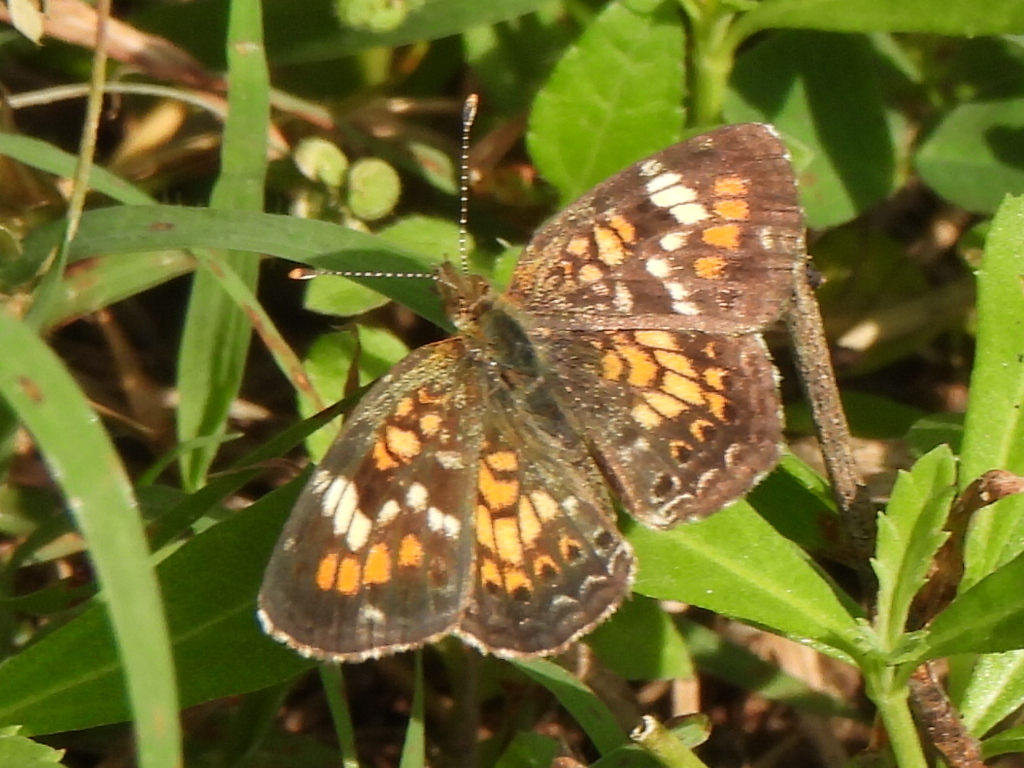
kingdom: Animalia
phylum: Arthropoda
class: Insecta
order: Lepidoptera
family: Nymphalidae
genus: Phyciodes
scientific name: Phyciodes phaon
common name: Phaon crescent
